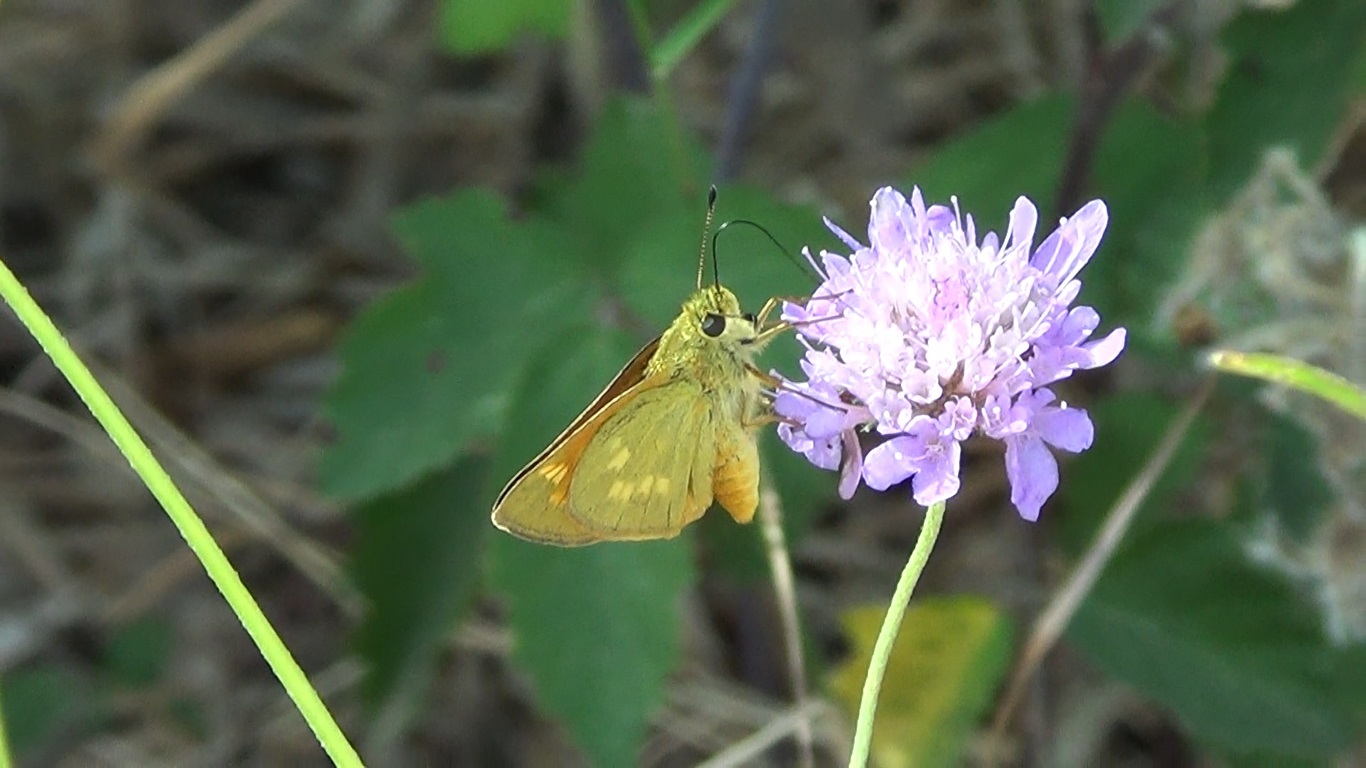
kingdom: Animalia
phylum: Arthropoda
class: Insecta
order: Lepidoptera
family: Hesperiidae
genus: Ochlodes
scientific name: Ochlodes venata
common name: Large skipper
